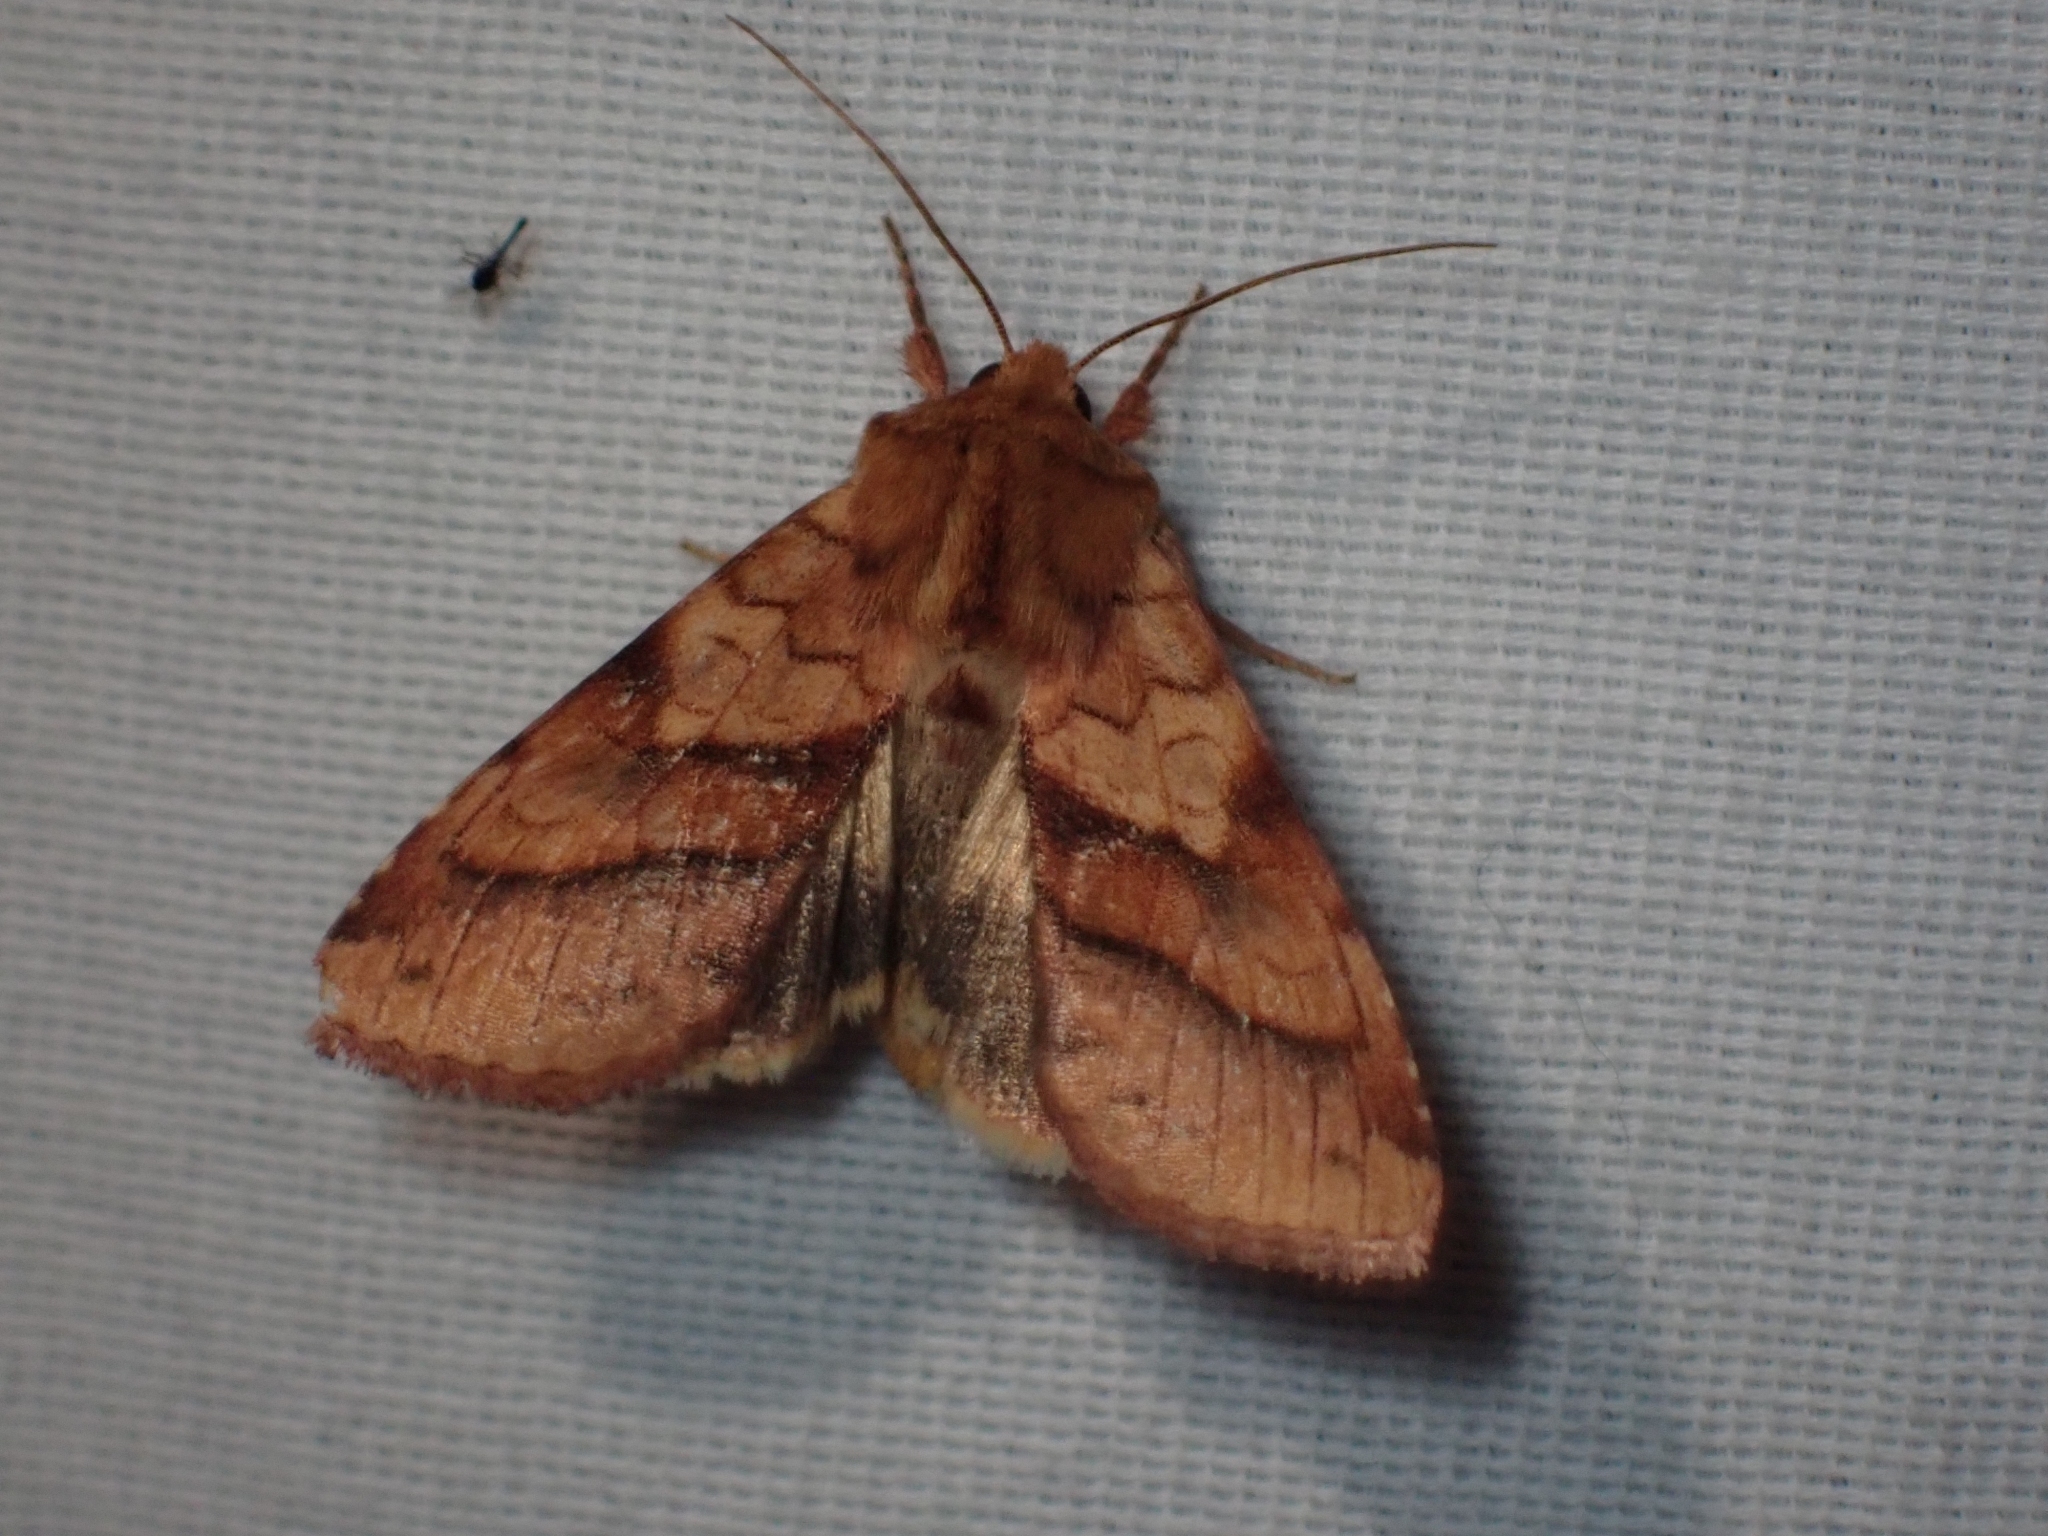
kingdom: Animalia
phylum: Arthropoda
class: Insecta
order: Lepidoptera
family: Noctuidae
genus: Pyrrhia
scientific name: Pyrrhia exprimens
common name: Purple-lined sallow
